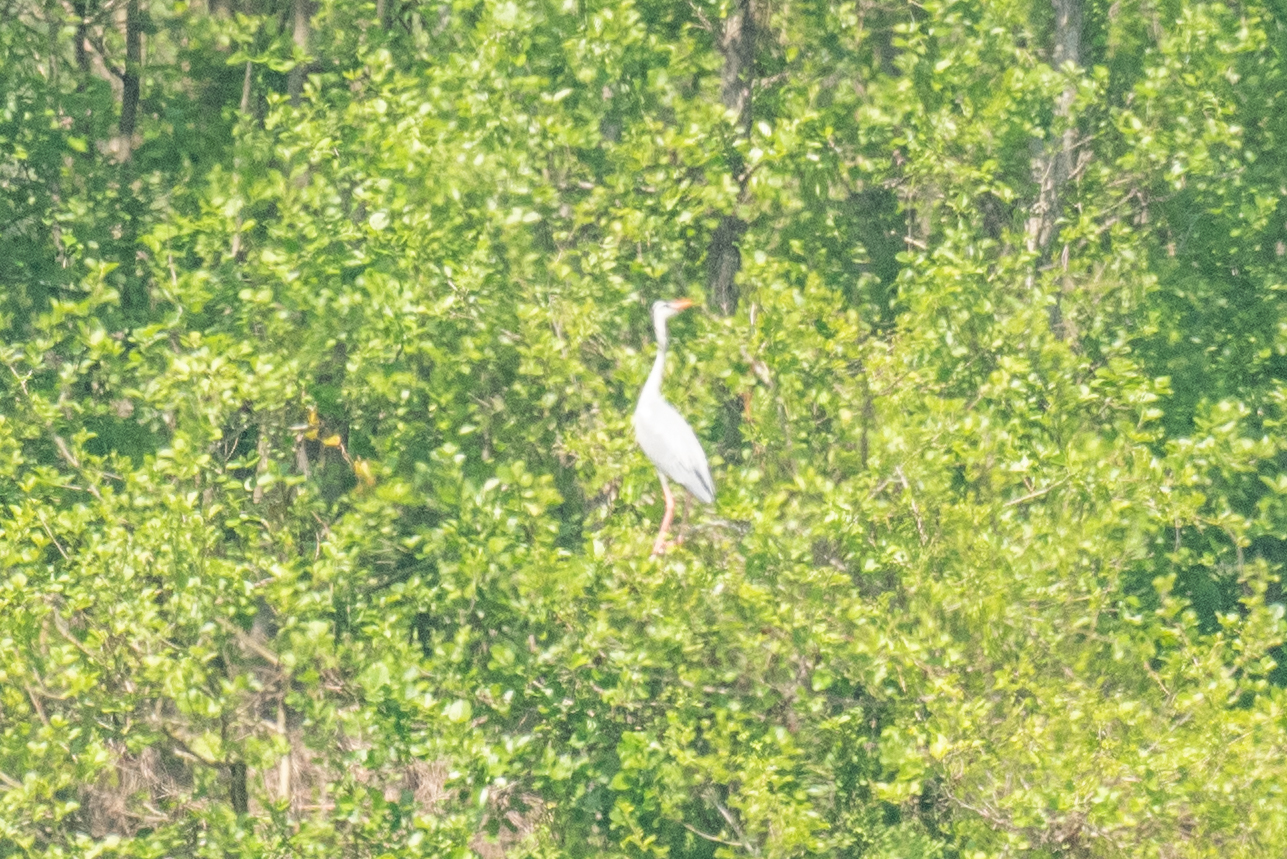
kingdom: Animalia
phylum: Chordata
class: Aves
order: Pelecaniformes
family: Ardeidae
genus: Ardea
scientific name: Ardea cinerea
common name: Grey heron
